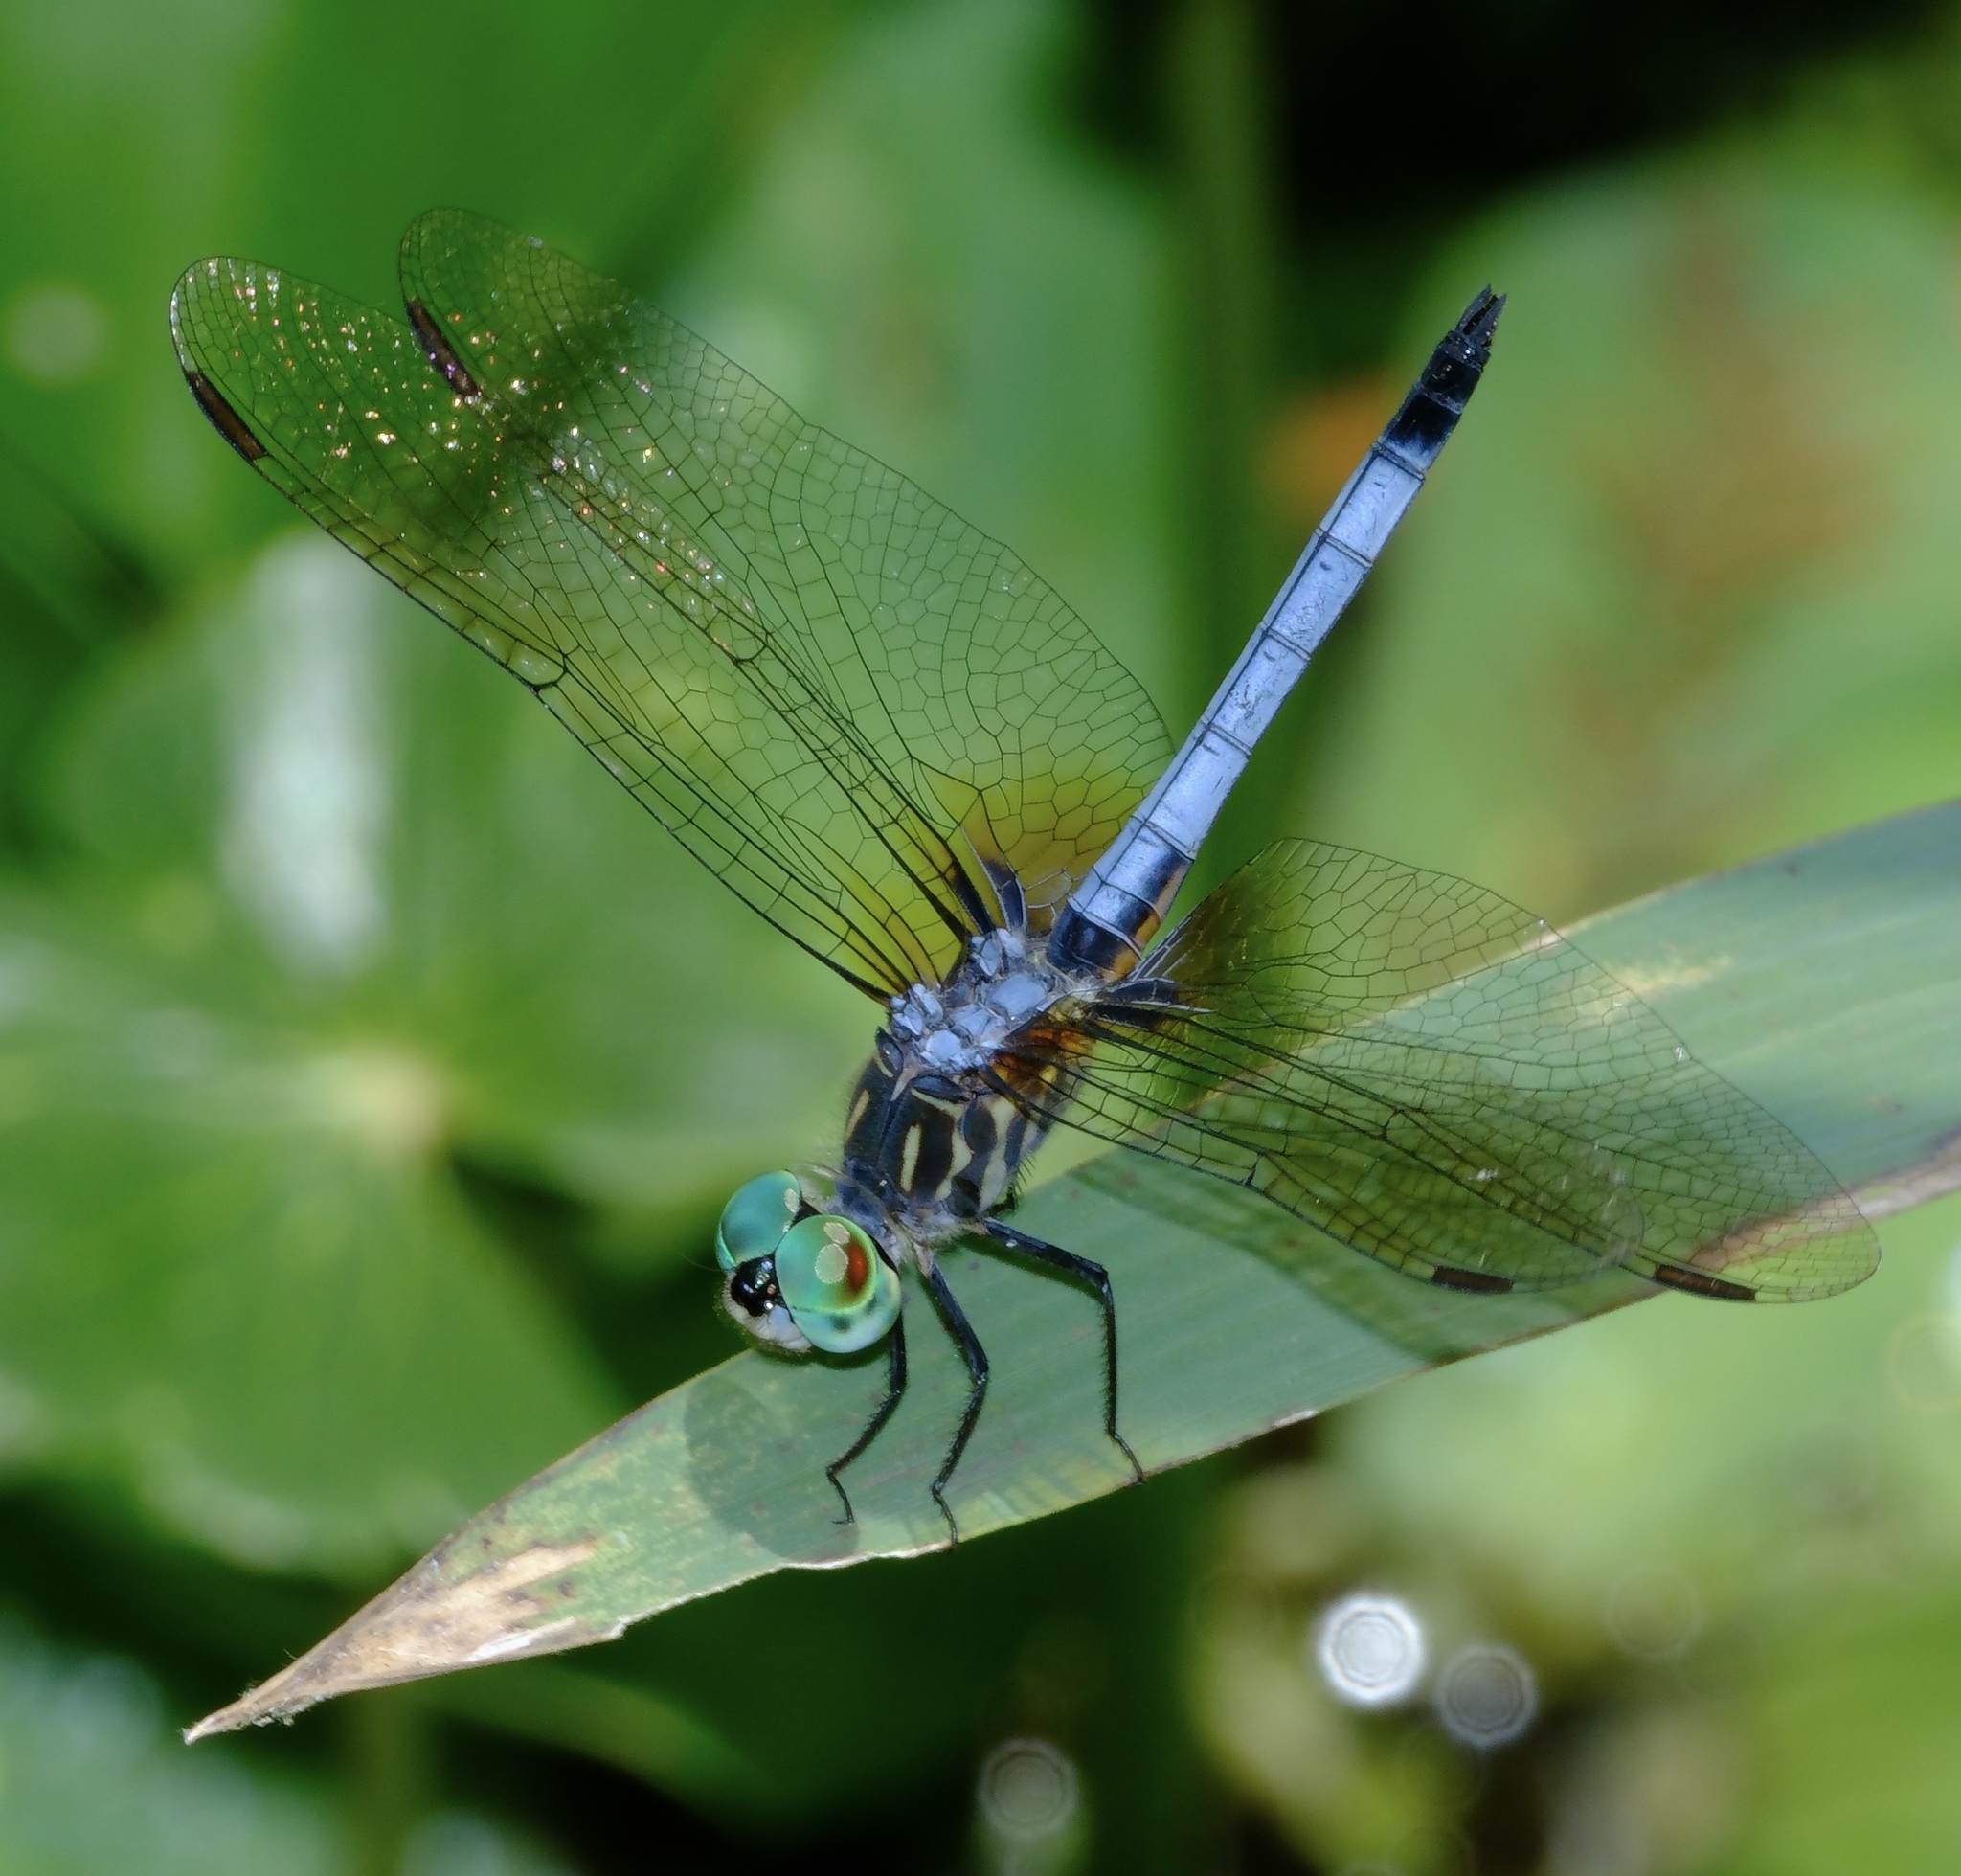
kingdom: Animalia
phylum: Arthropoda
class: Insecta
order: Odonata
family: Libellulidae
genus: Pachydiplax
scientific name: Pachydiplax longipennis
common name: Blue dasher
